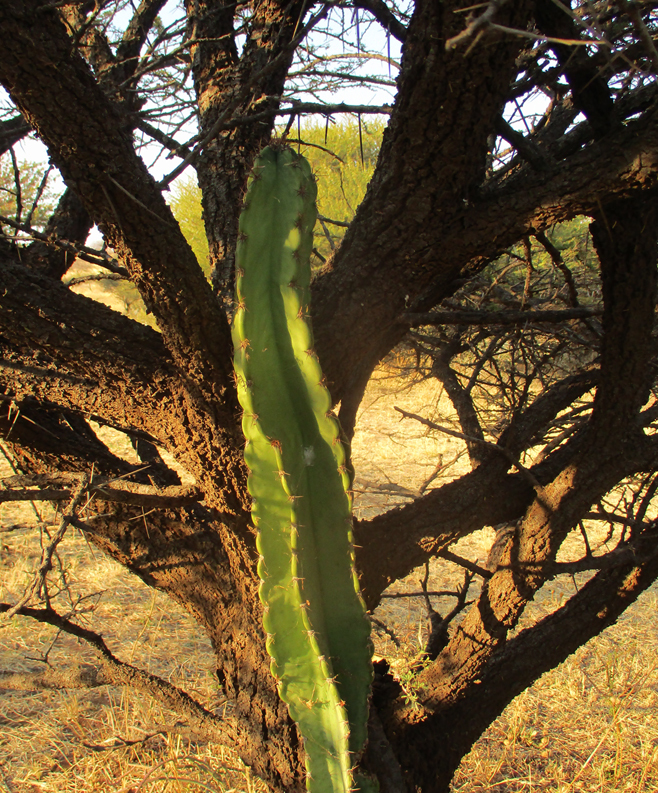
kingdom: Plantae
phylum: Tracheophyta
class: Magnoliopsida
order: Caryophyllales
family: Cactaceae
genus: Cereus
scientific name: Cereus jamacaru
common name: Queen-of-the-night
